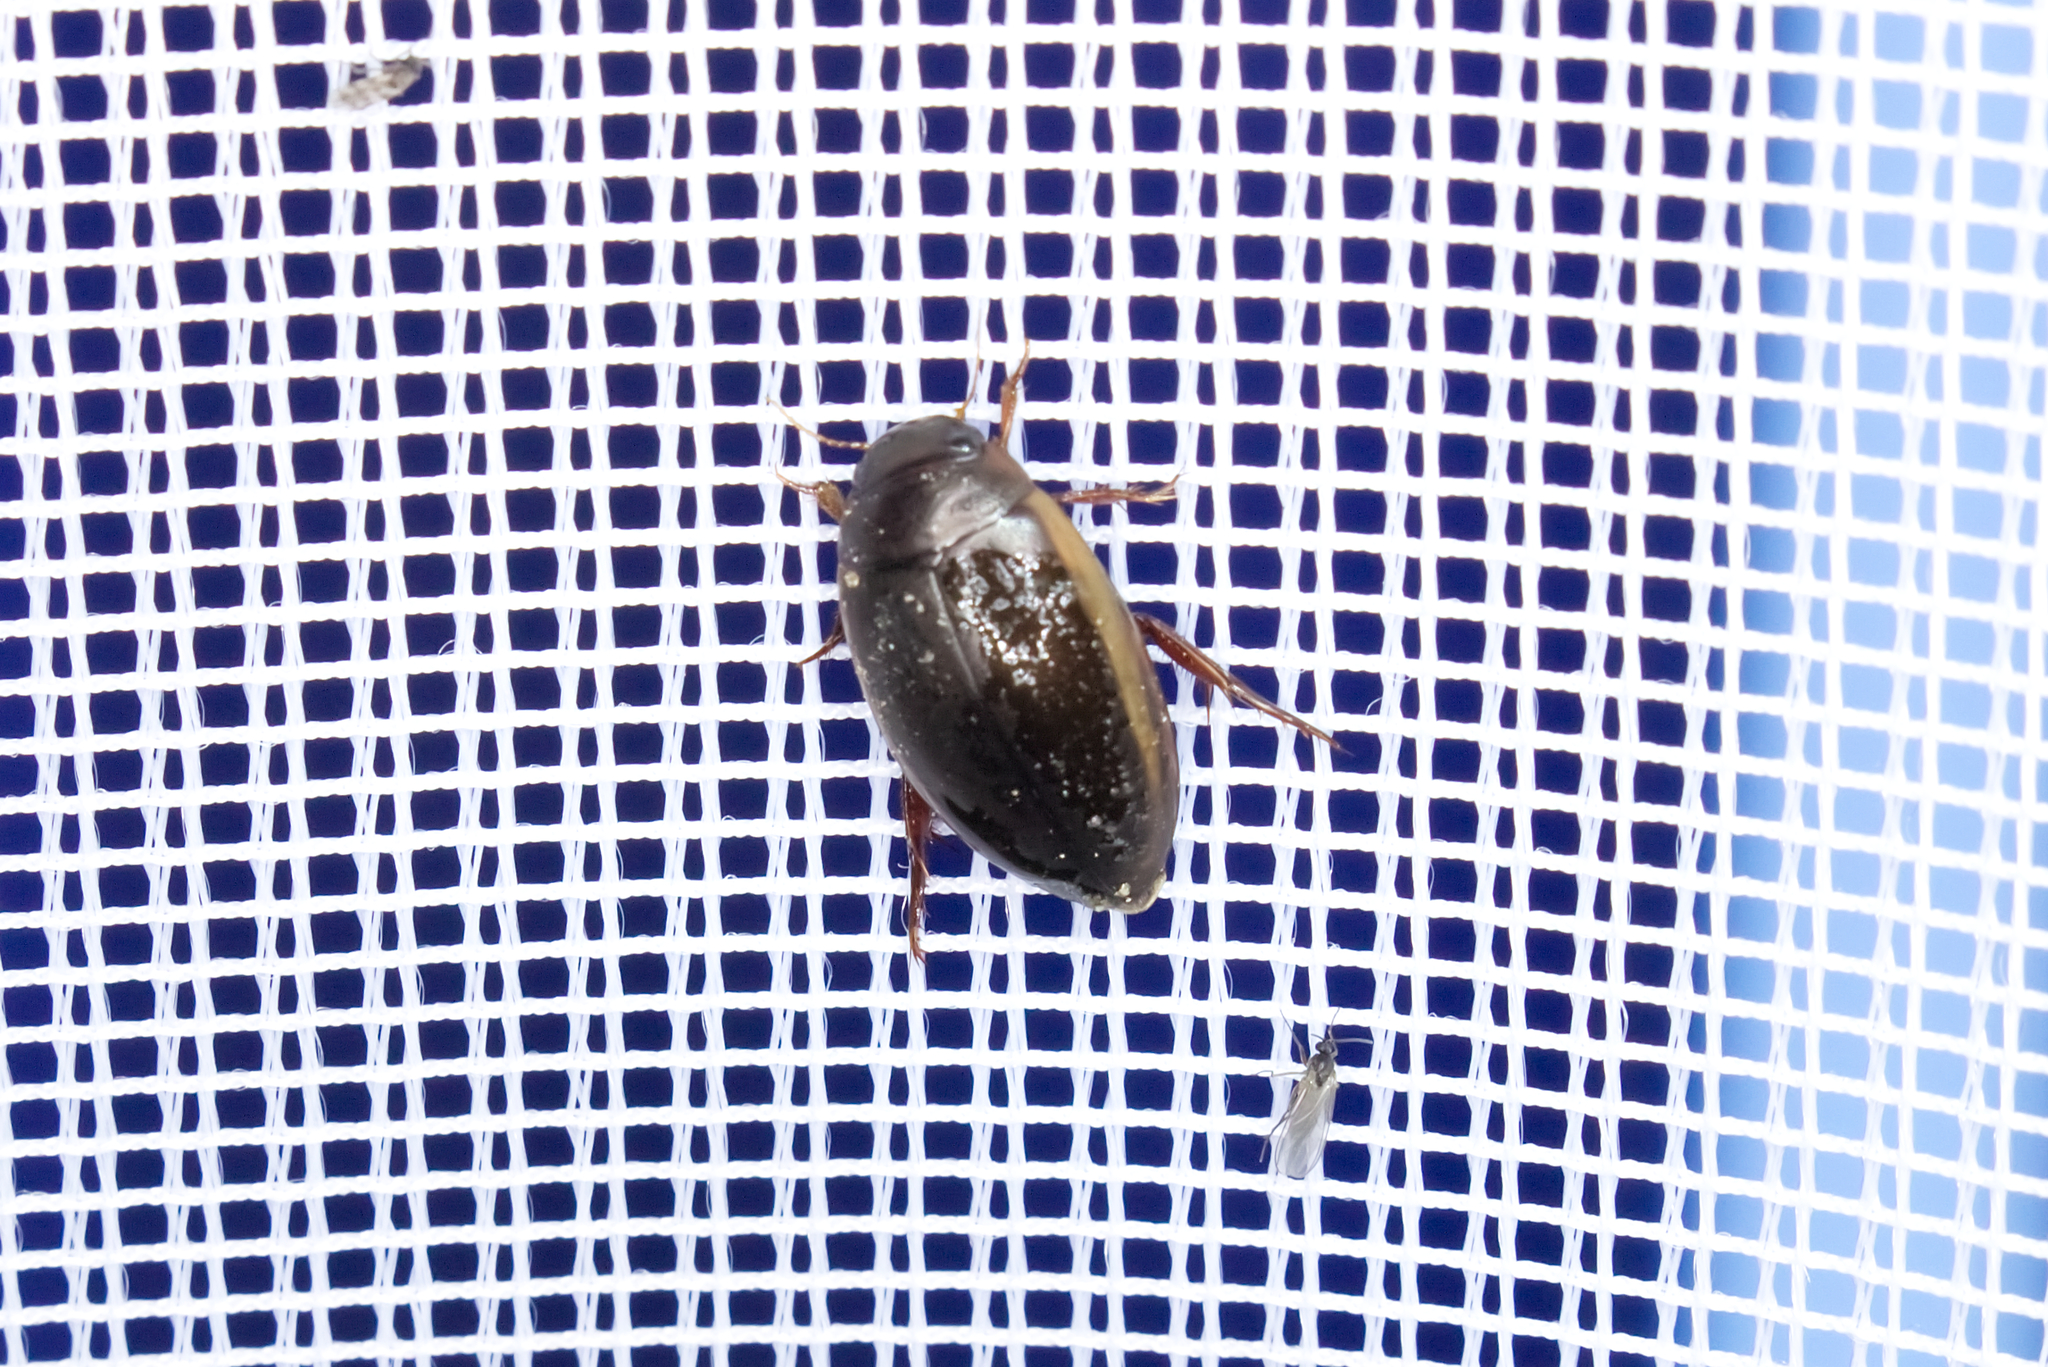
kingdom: Animalia
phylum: Arthropoda
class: Insecta
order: Coleoptera
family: Dytiscidae
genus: Ilybius
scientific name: Ilybius fuliginosus
